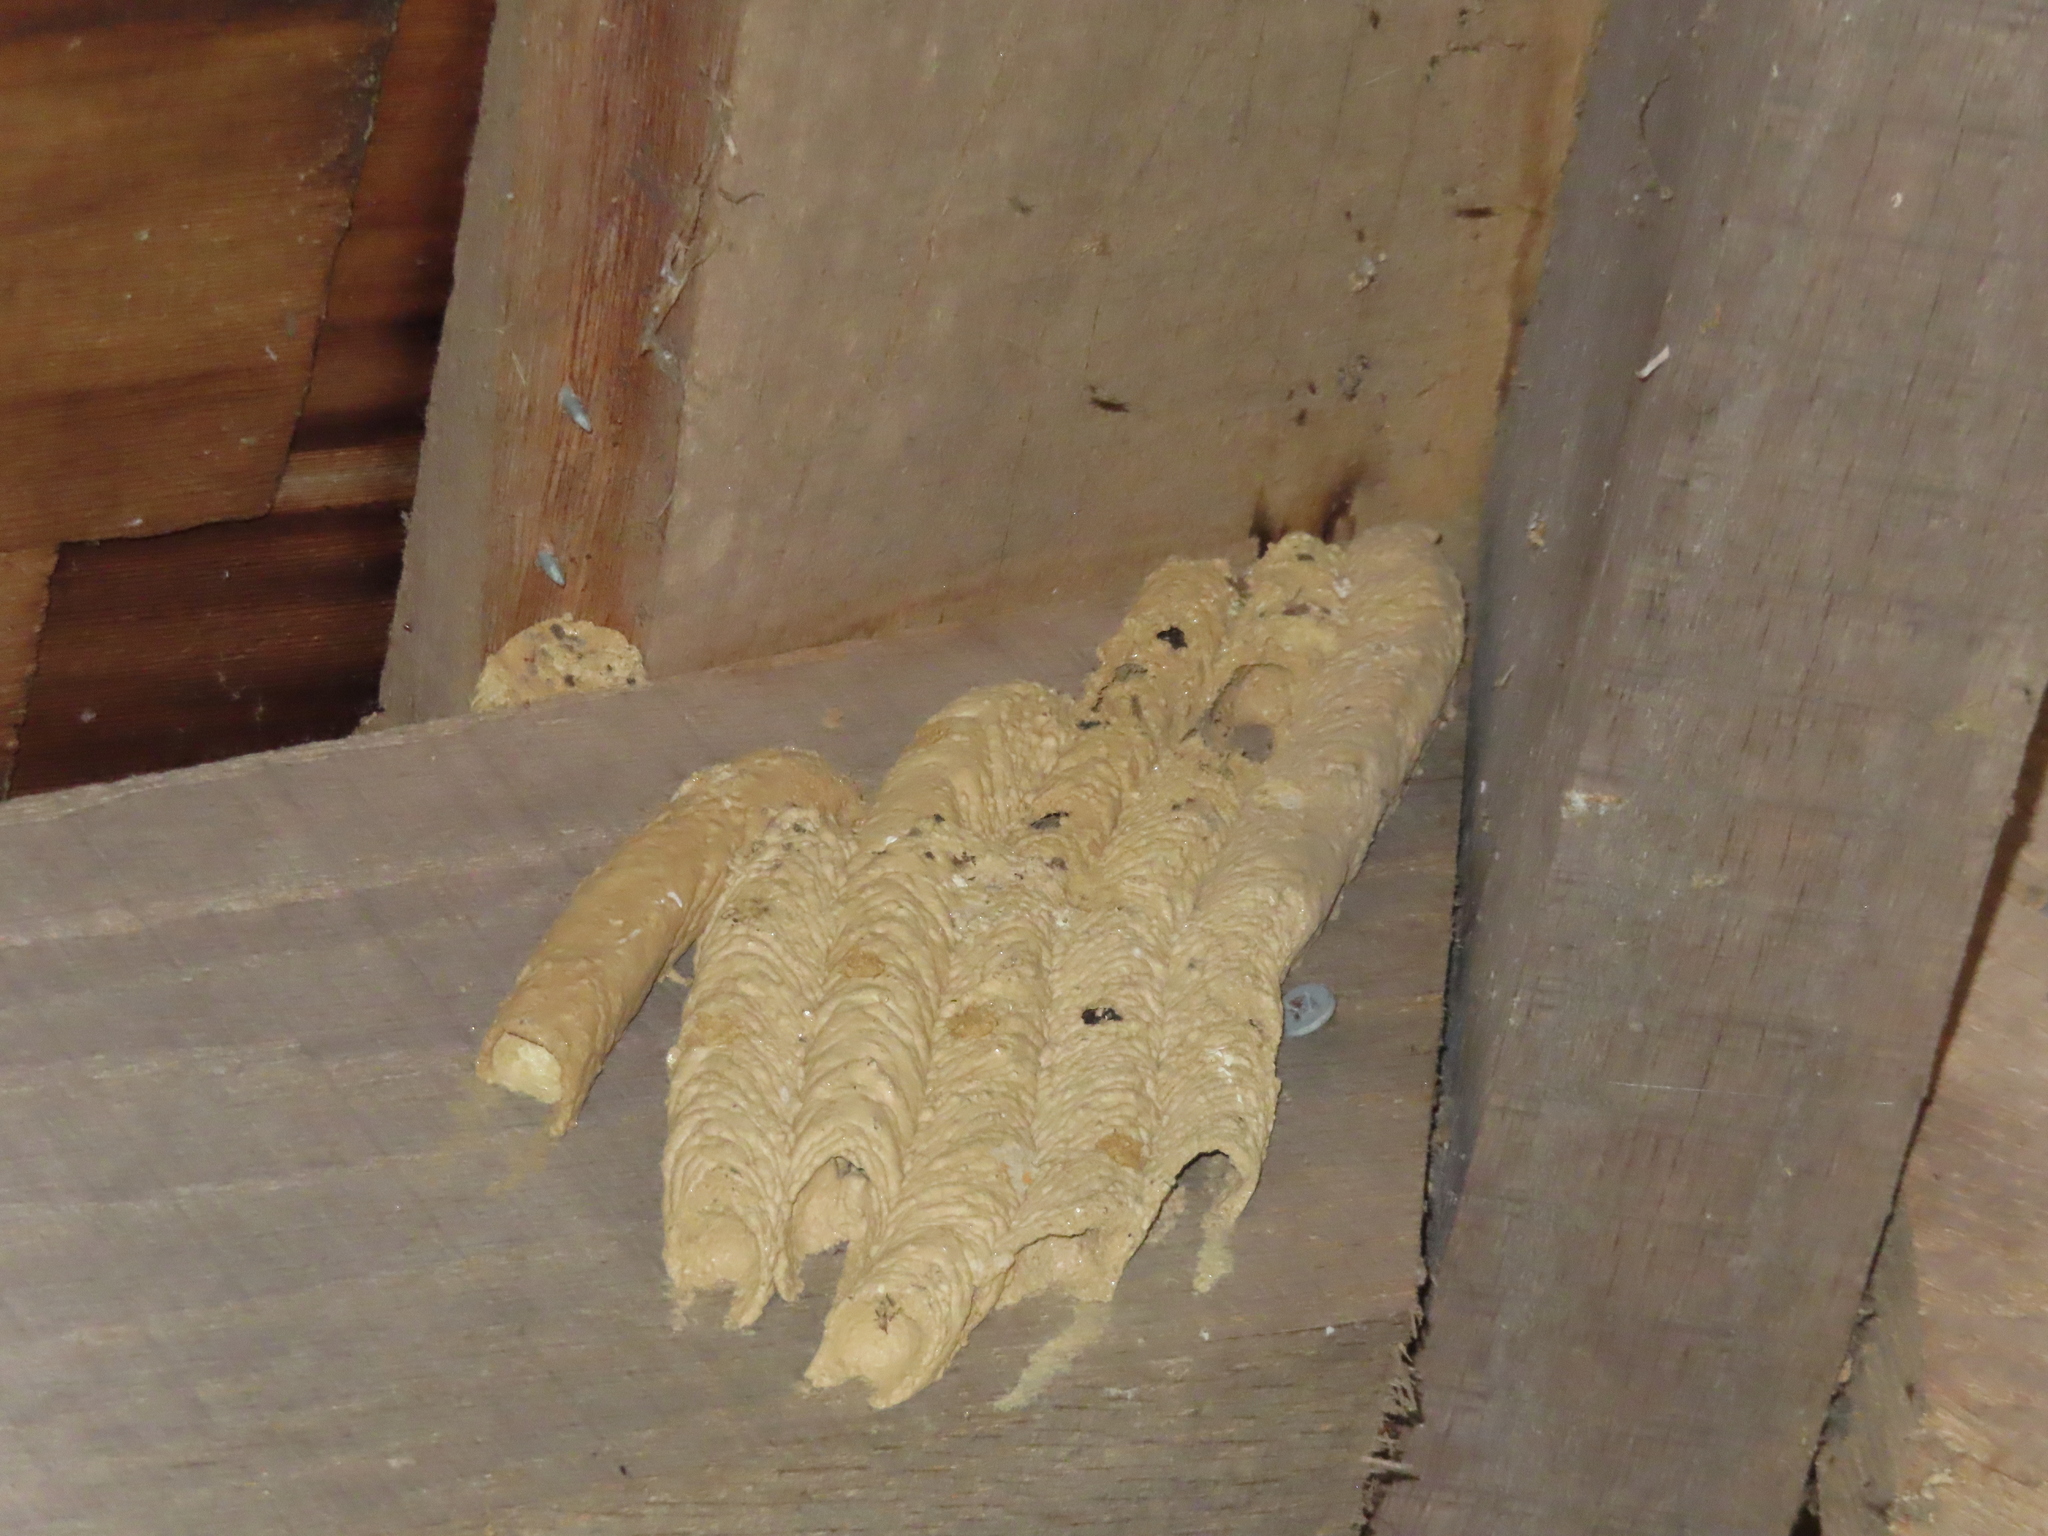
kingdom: Animalia
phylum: Arthropoda
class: Insecta
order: Hymenoptera
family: Crabronidae
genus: Trypoxylon
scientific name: Trypoxylon politum
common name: Organ-pipe mud-dauber wasp
